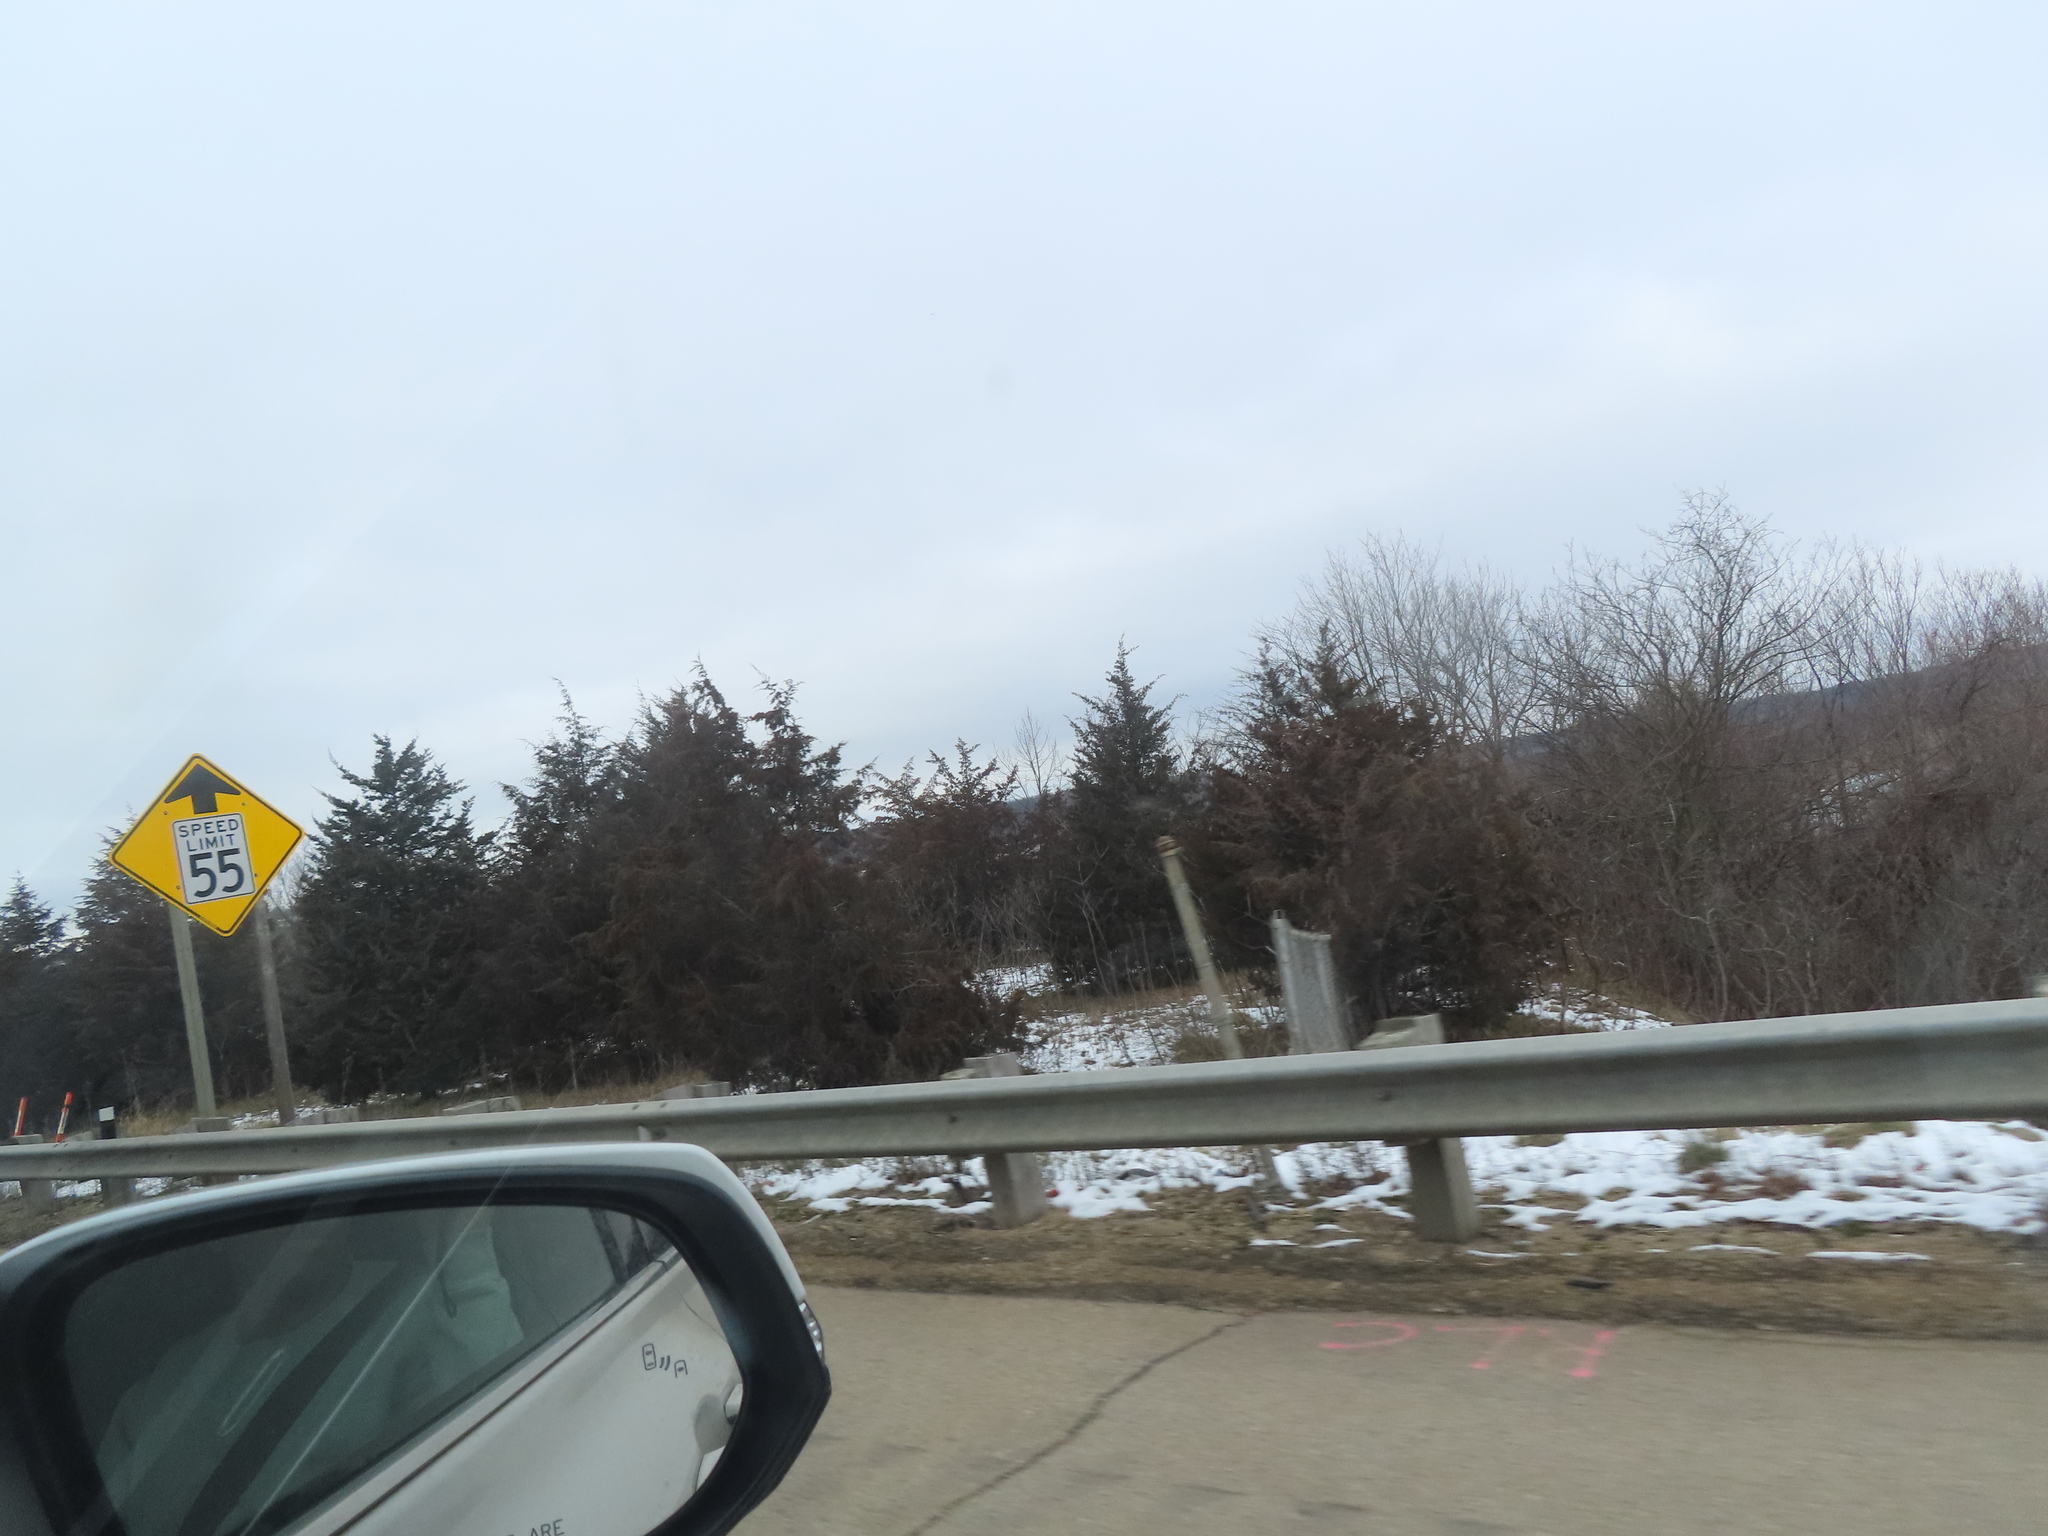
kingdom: Plantae
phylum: Tracheophyta
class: Pinopsida
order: Pinales
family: Cupressaceae
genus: Juniperus
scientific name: Juniperus virginiana
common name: Red juniper
